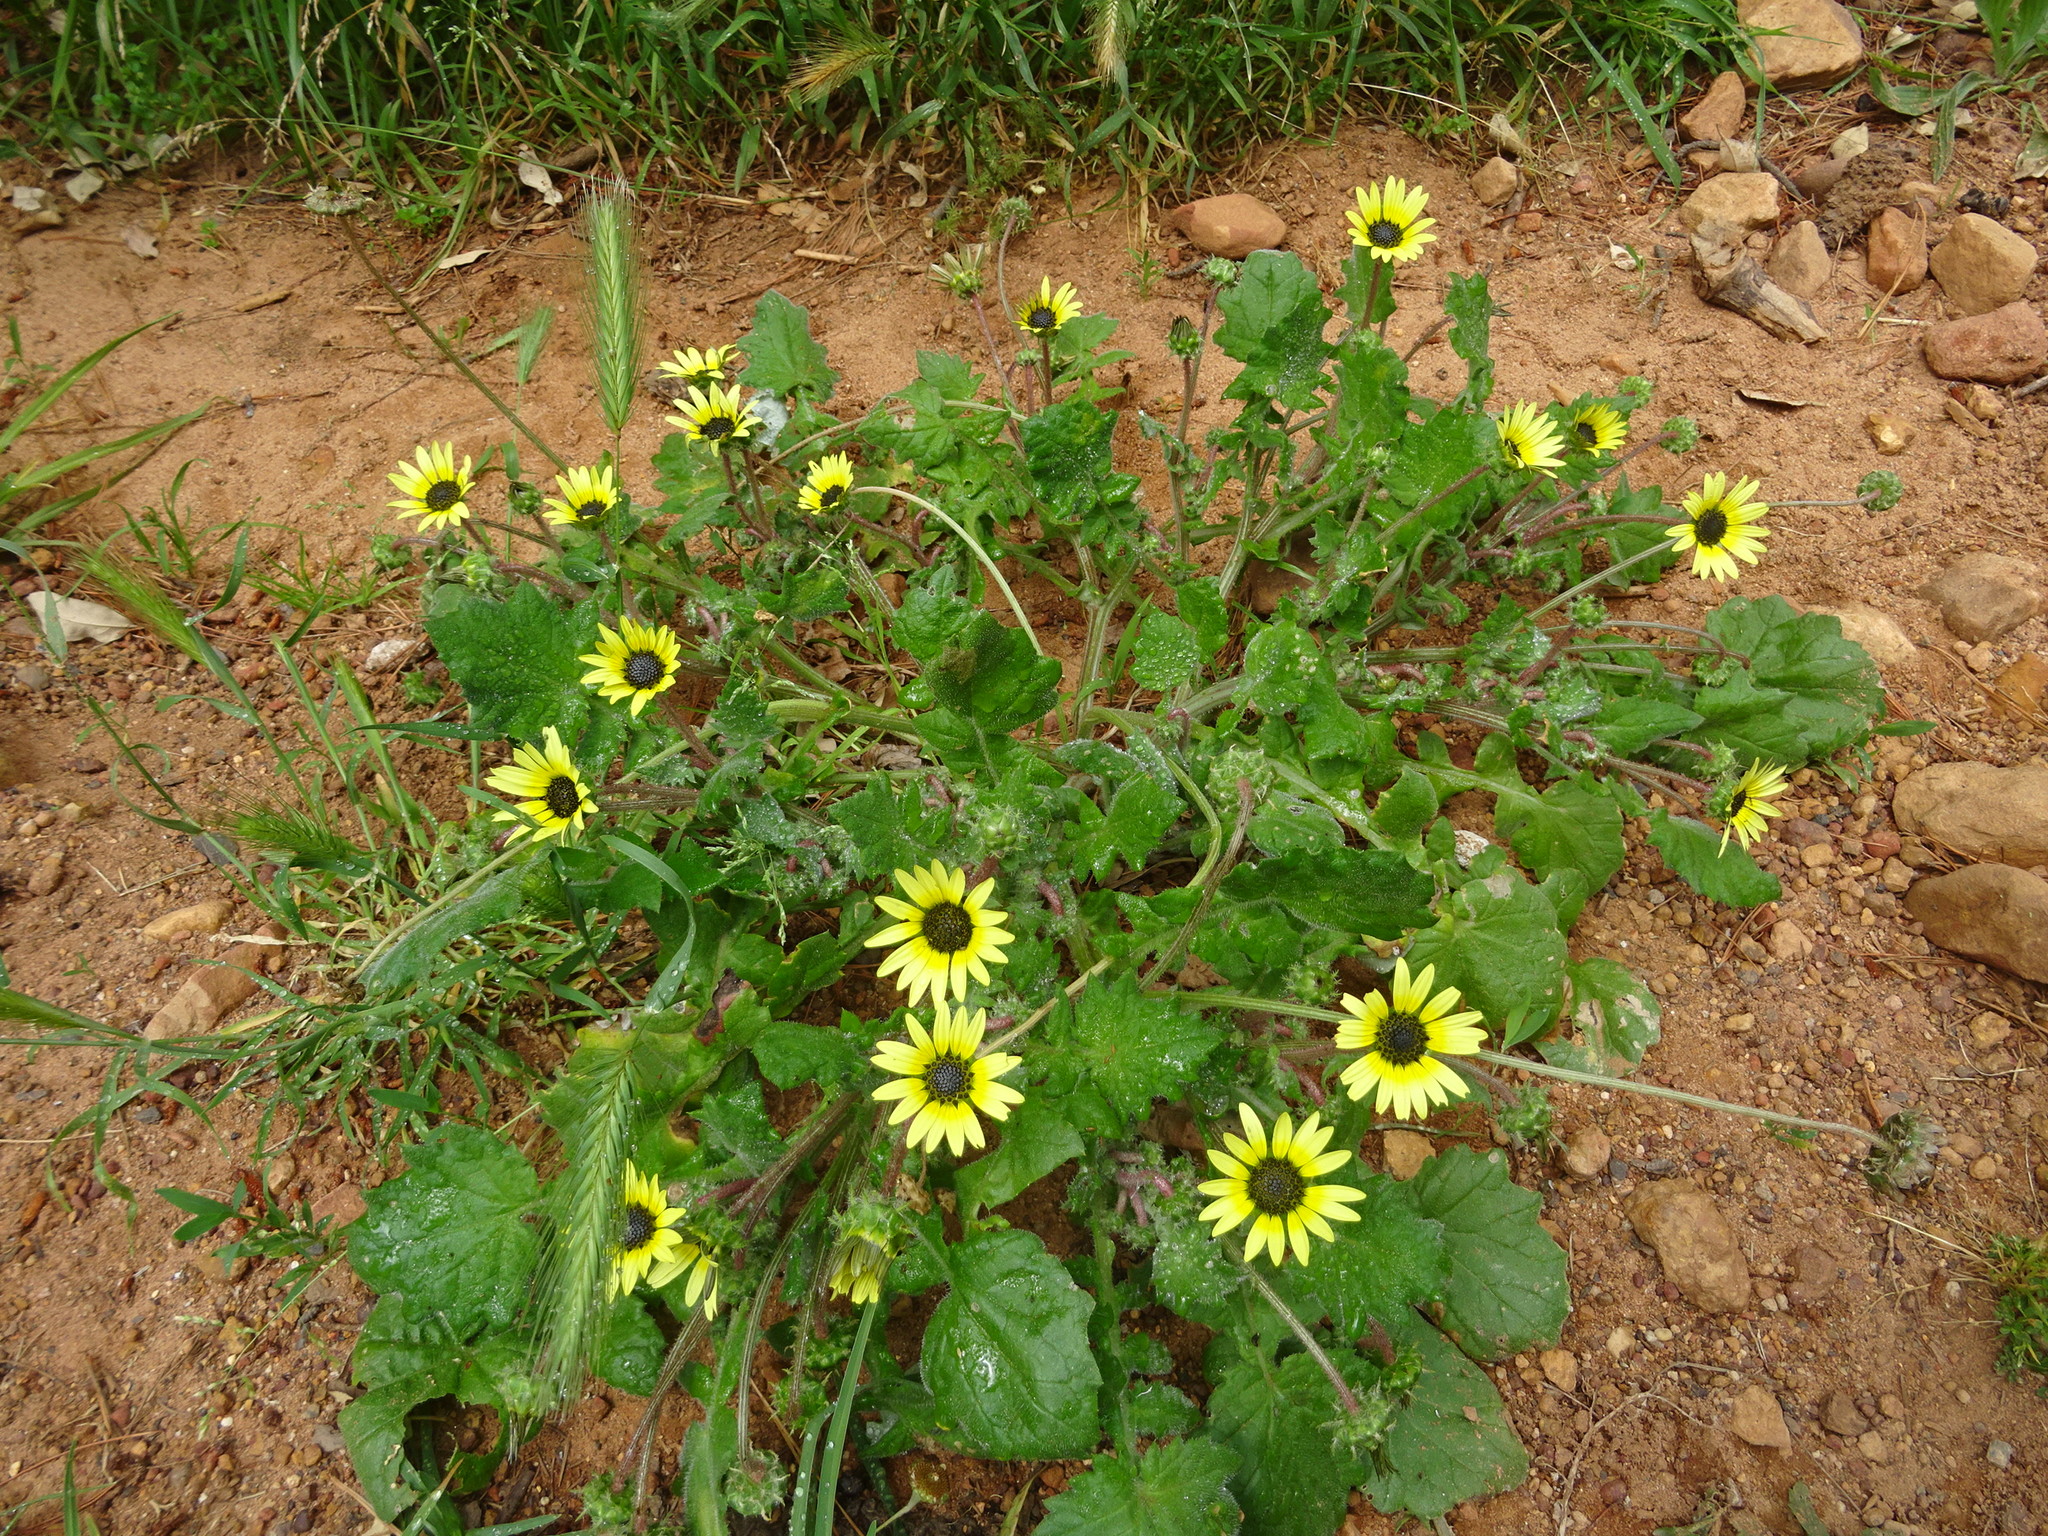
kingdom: Plantae
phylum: Tracheophyta
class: Magnoliopsida
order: Asterales
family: Asteraceae
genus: Arctotheca
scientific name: Arctotheca calendula
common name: Capeweed
